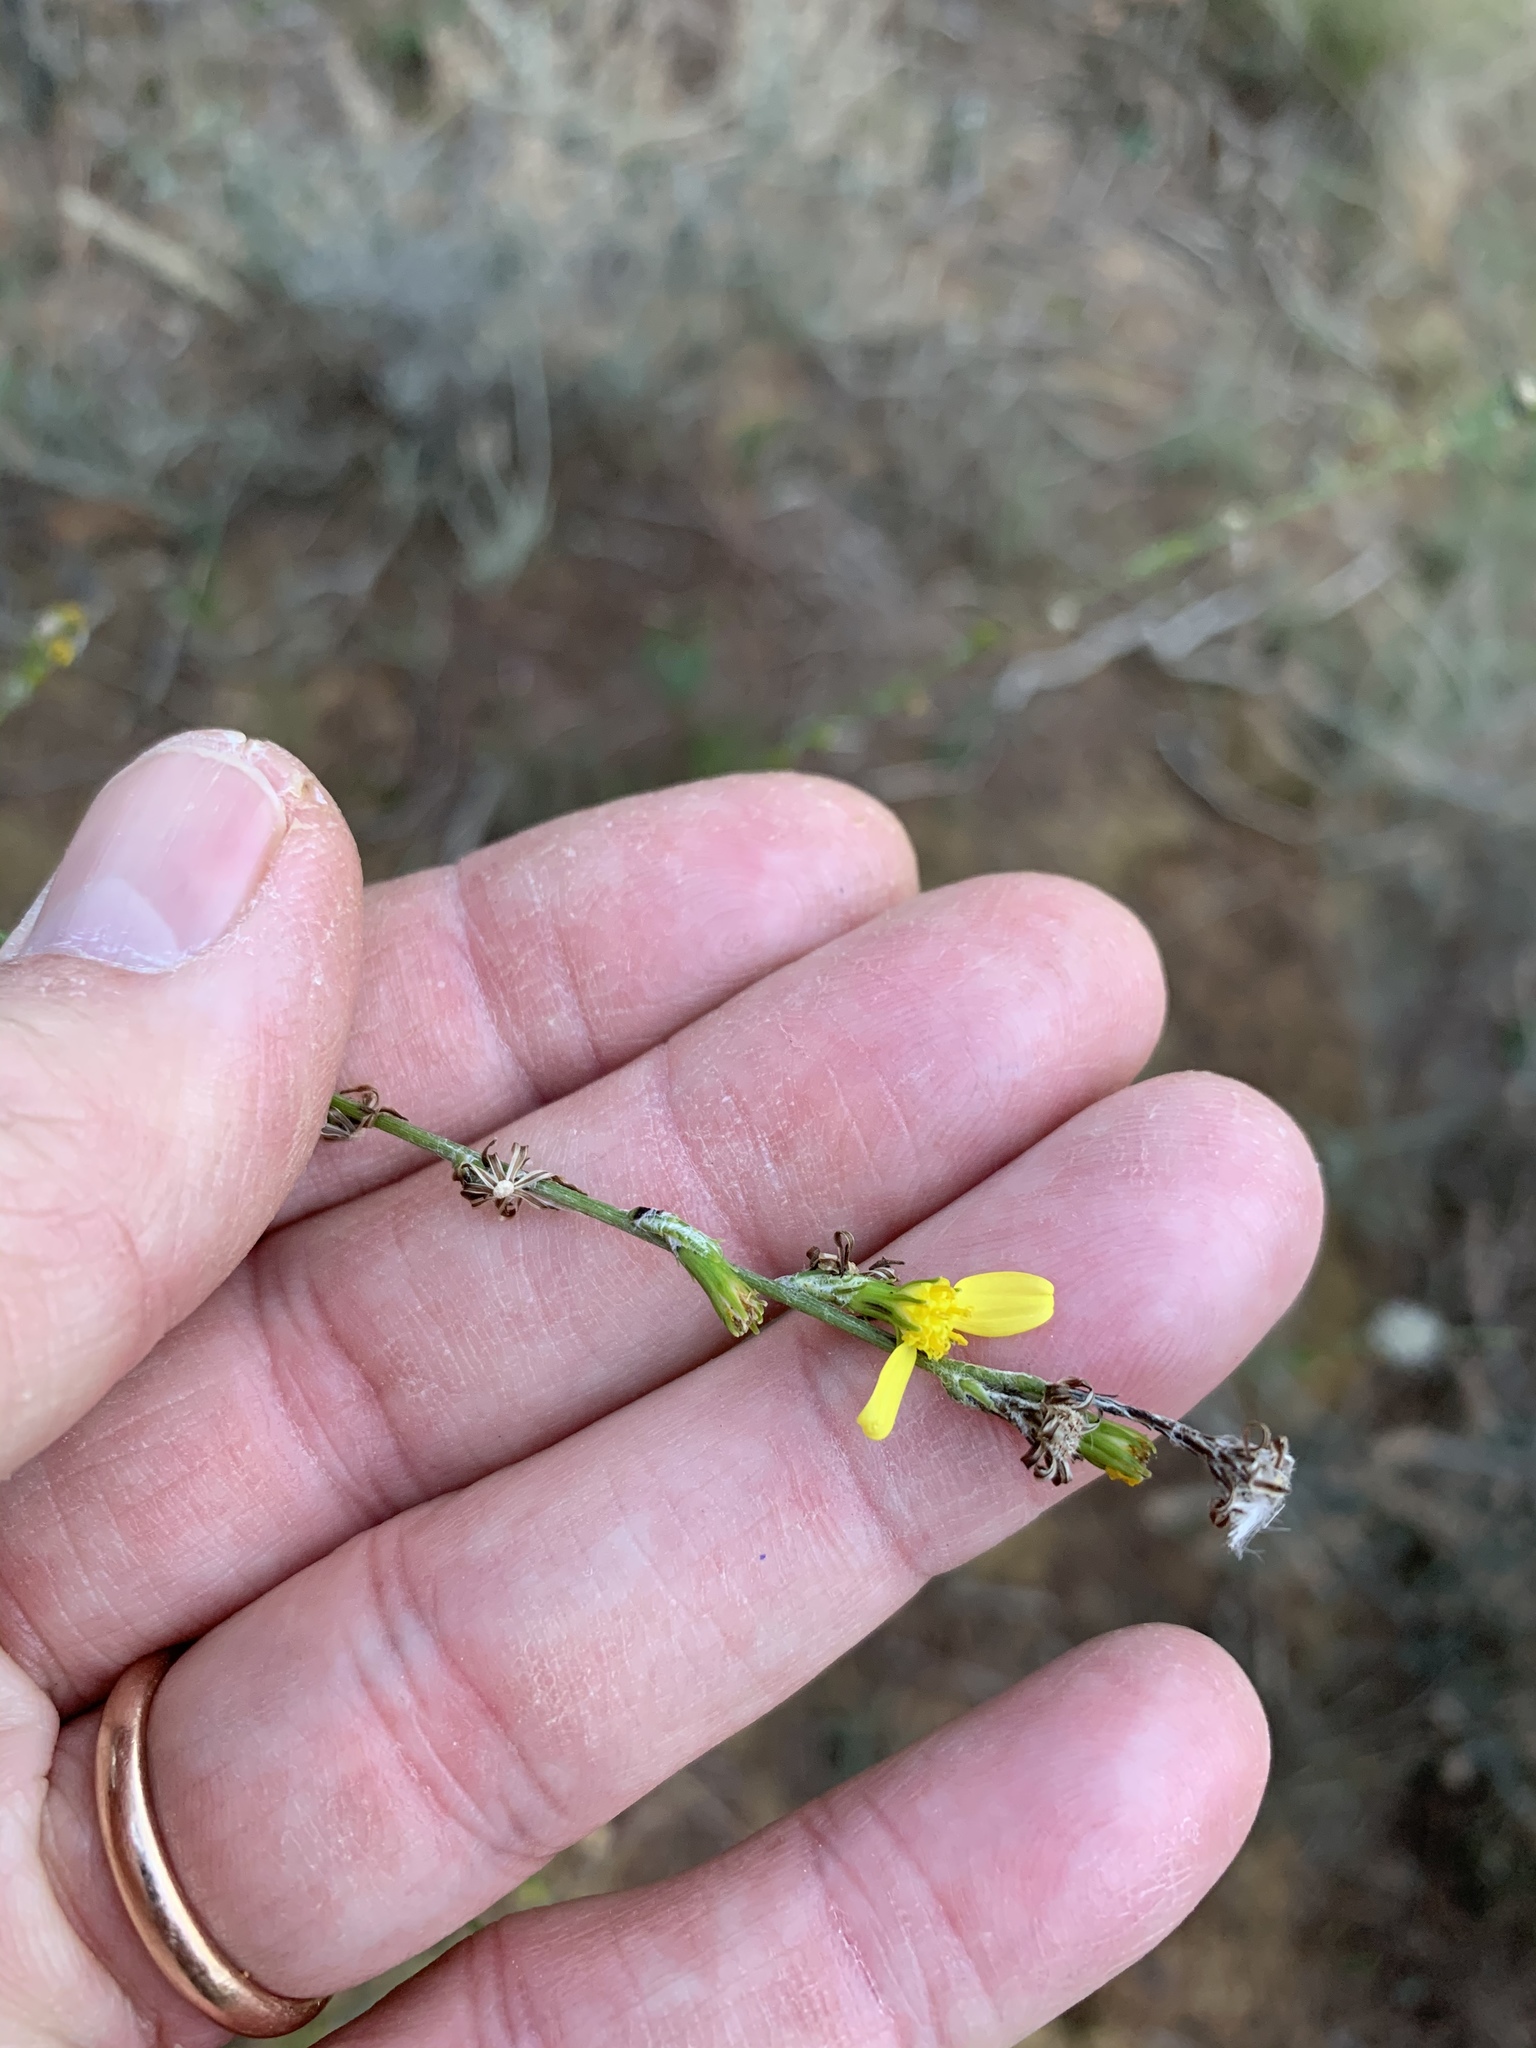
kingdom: Plantae
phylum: Tracheophyta
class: Magnoliopsida
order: Asterales
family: Asteraceae
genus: Senecio
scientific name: Senecio pubigerus
